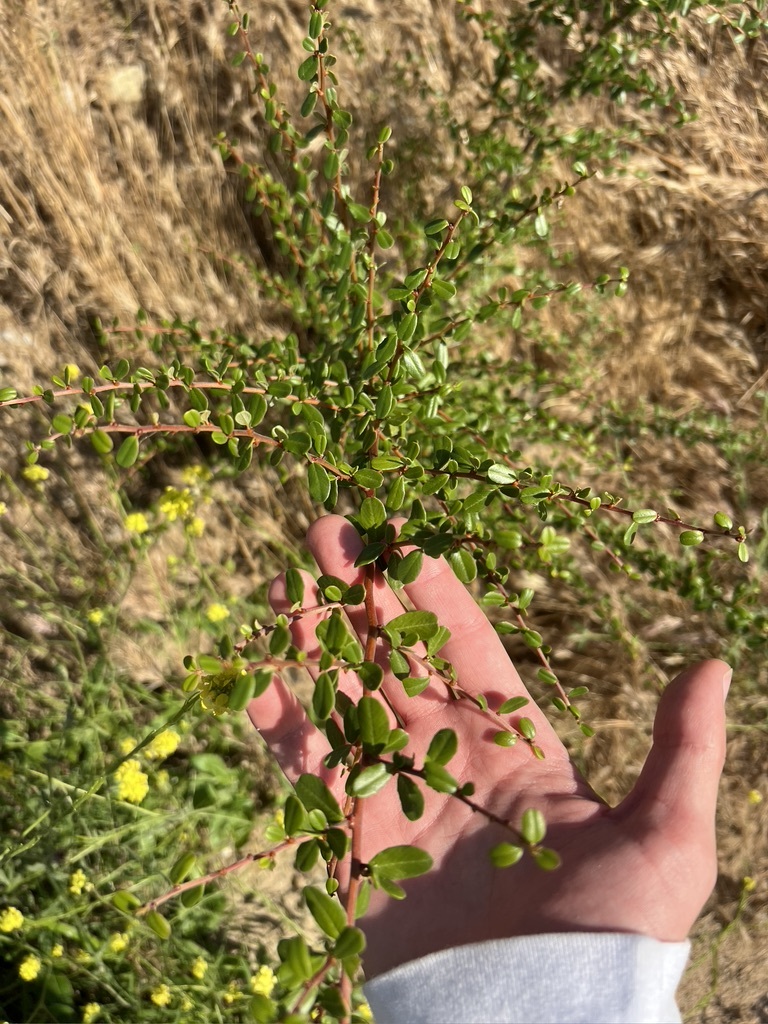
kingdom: Plantae
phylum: Tracheophyta
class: Magnoliopsida
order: Rosales
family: Rhamnaceae
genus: Ceanothus
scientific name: Ceanothus megacarpus
